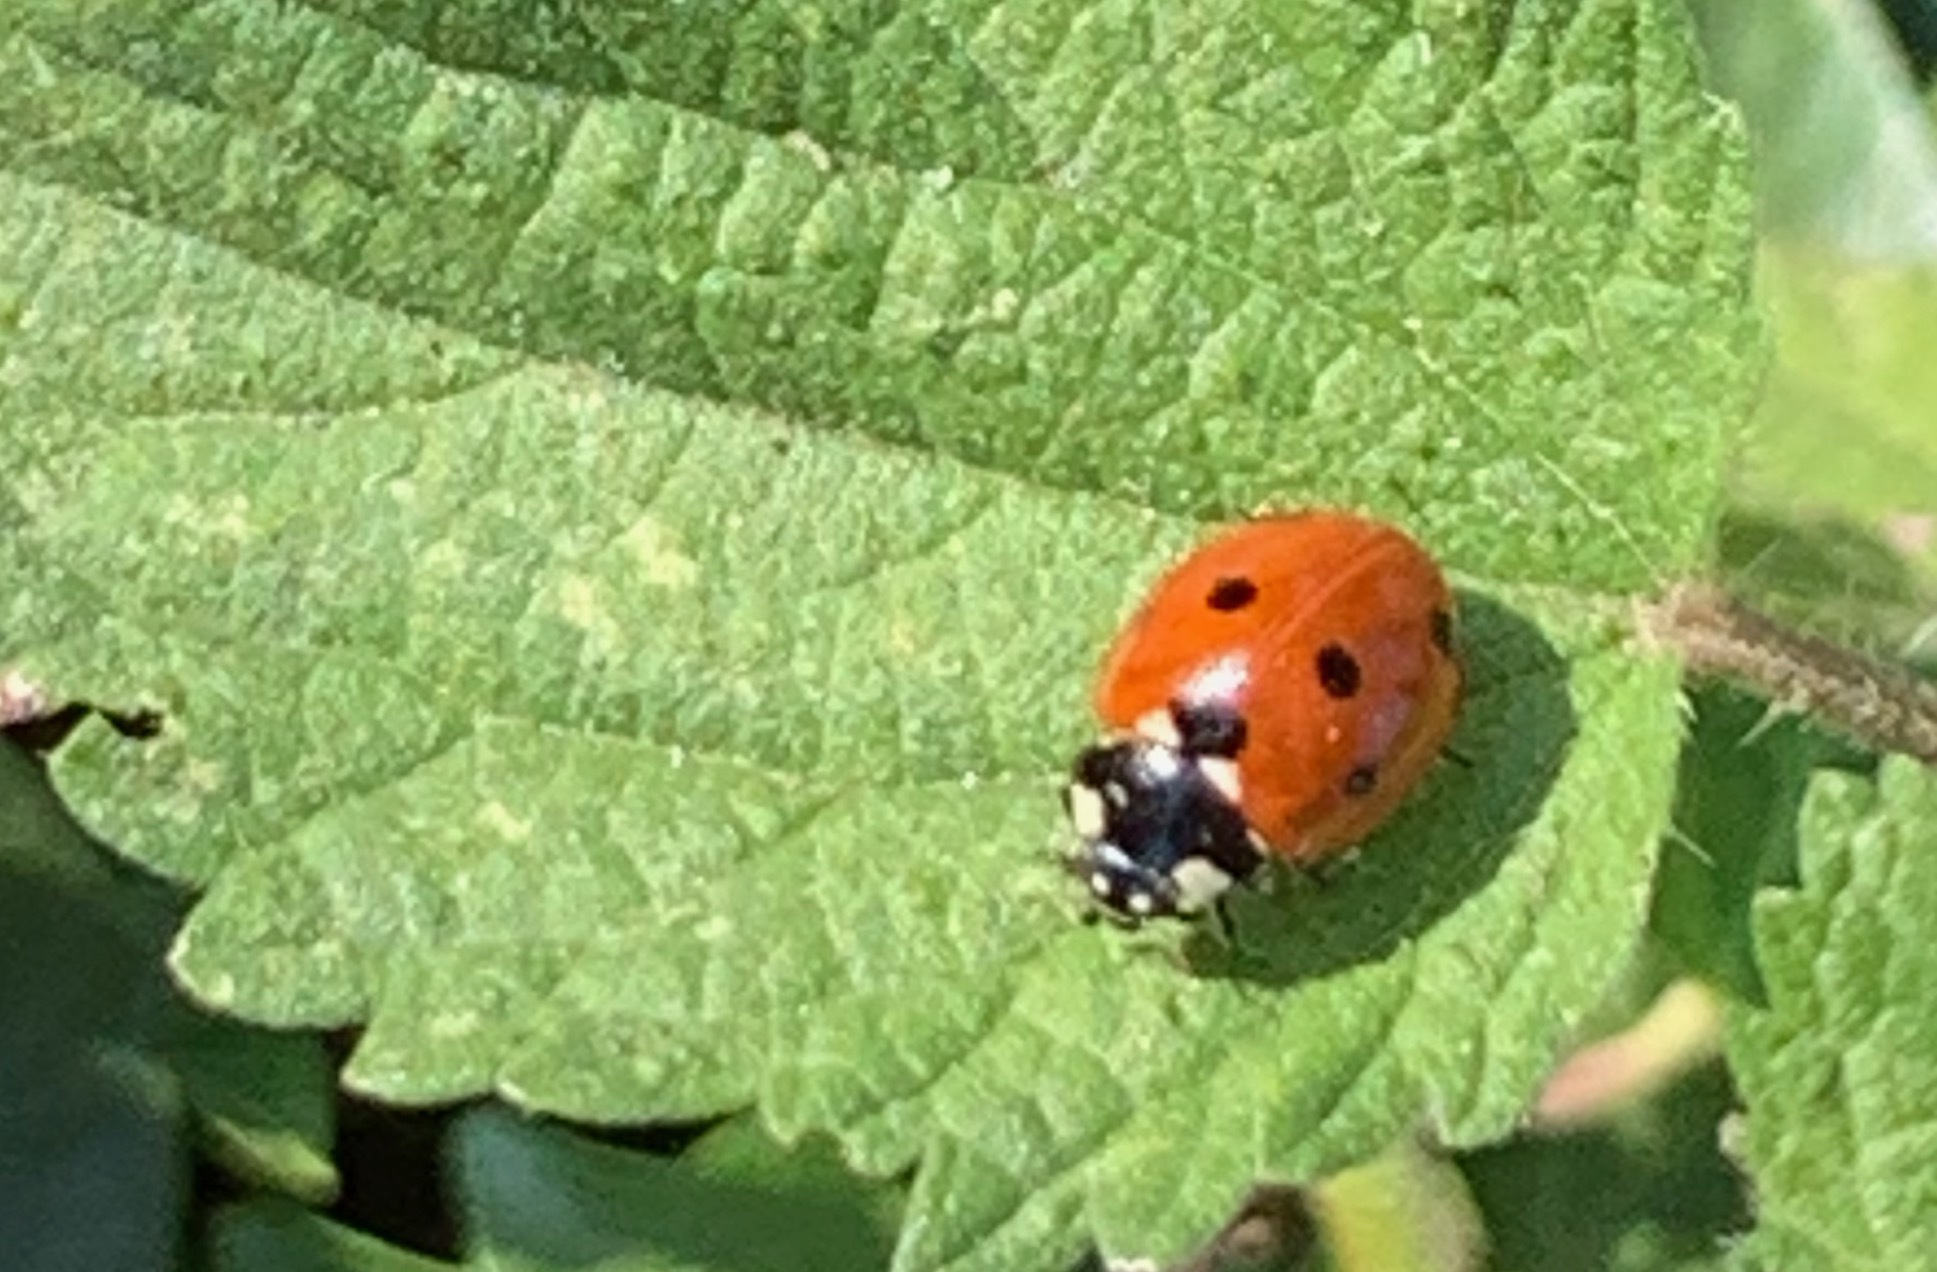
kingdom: Animalia
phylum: Arthropoda
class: Insecta
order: Coleoptera
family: Coccinellidae
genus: Coccinella
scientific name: Coccinella septempunctata
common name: Sevenspotted lady beetle
